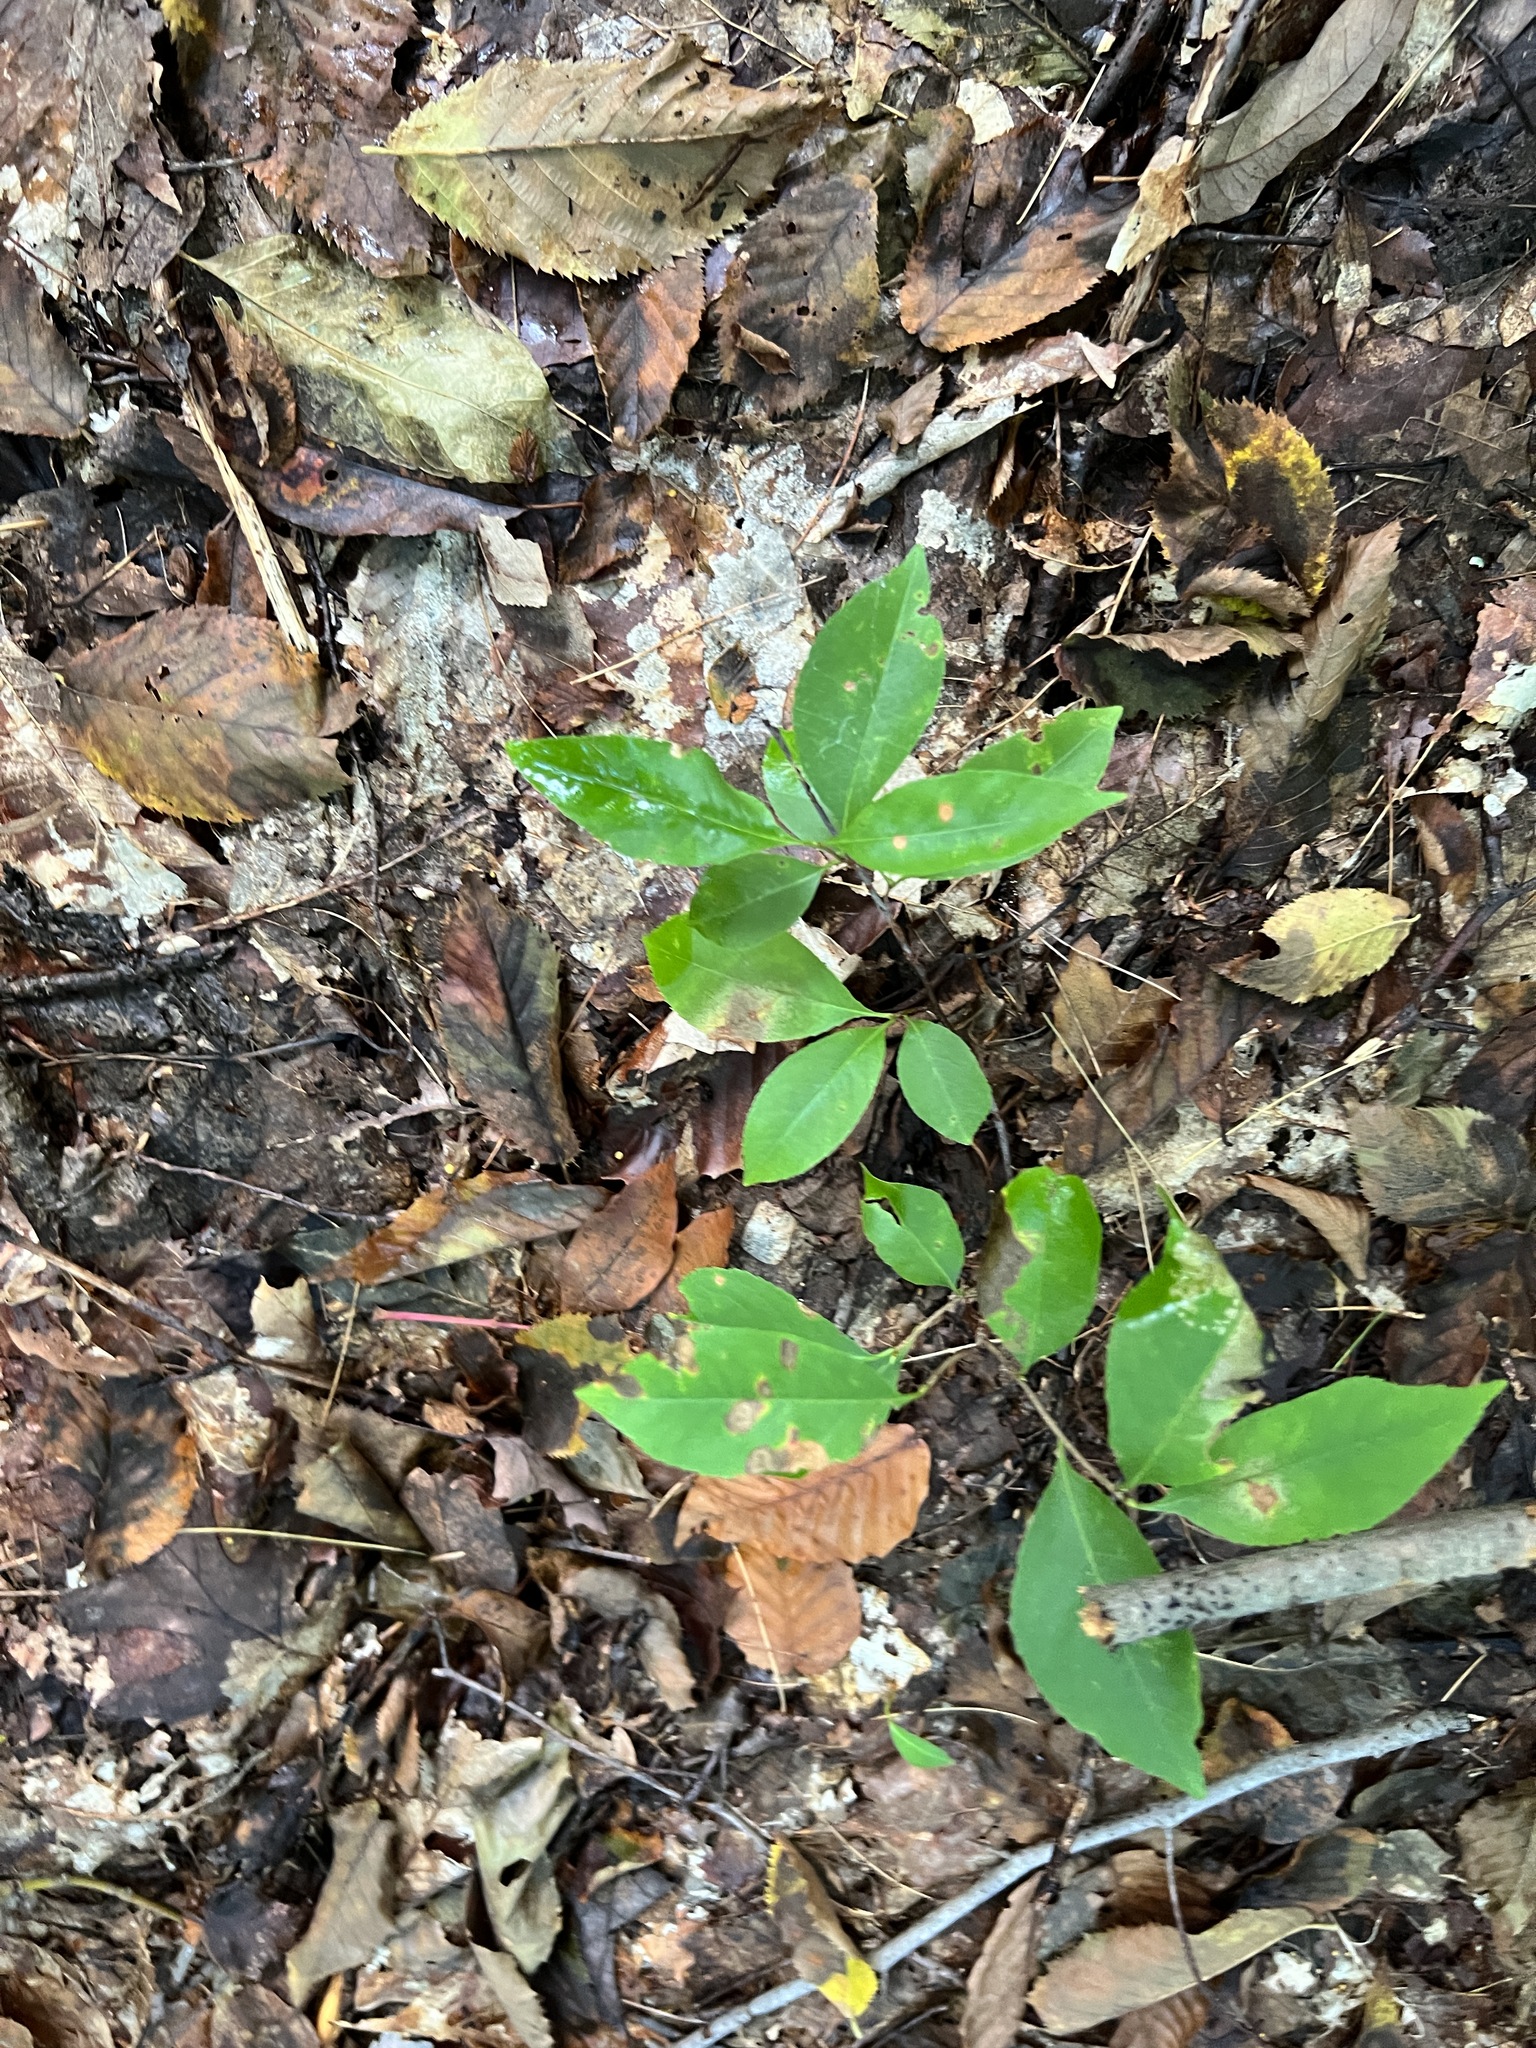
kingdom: Plantae
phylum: Tracheophyta
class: Magnoliopsida
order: Rosales
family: Rosaceae
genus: Prunus
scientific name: Prunus serotina
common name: Black cherry
